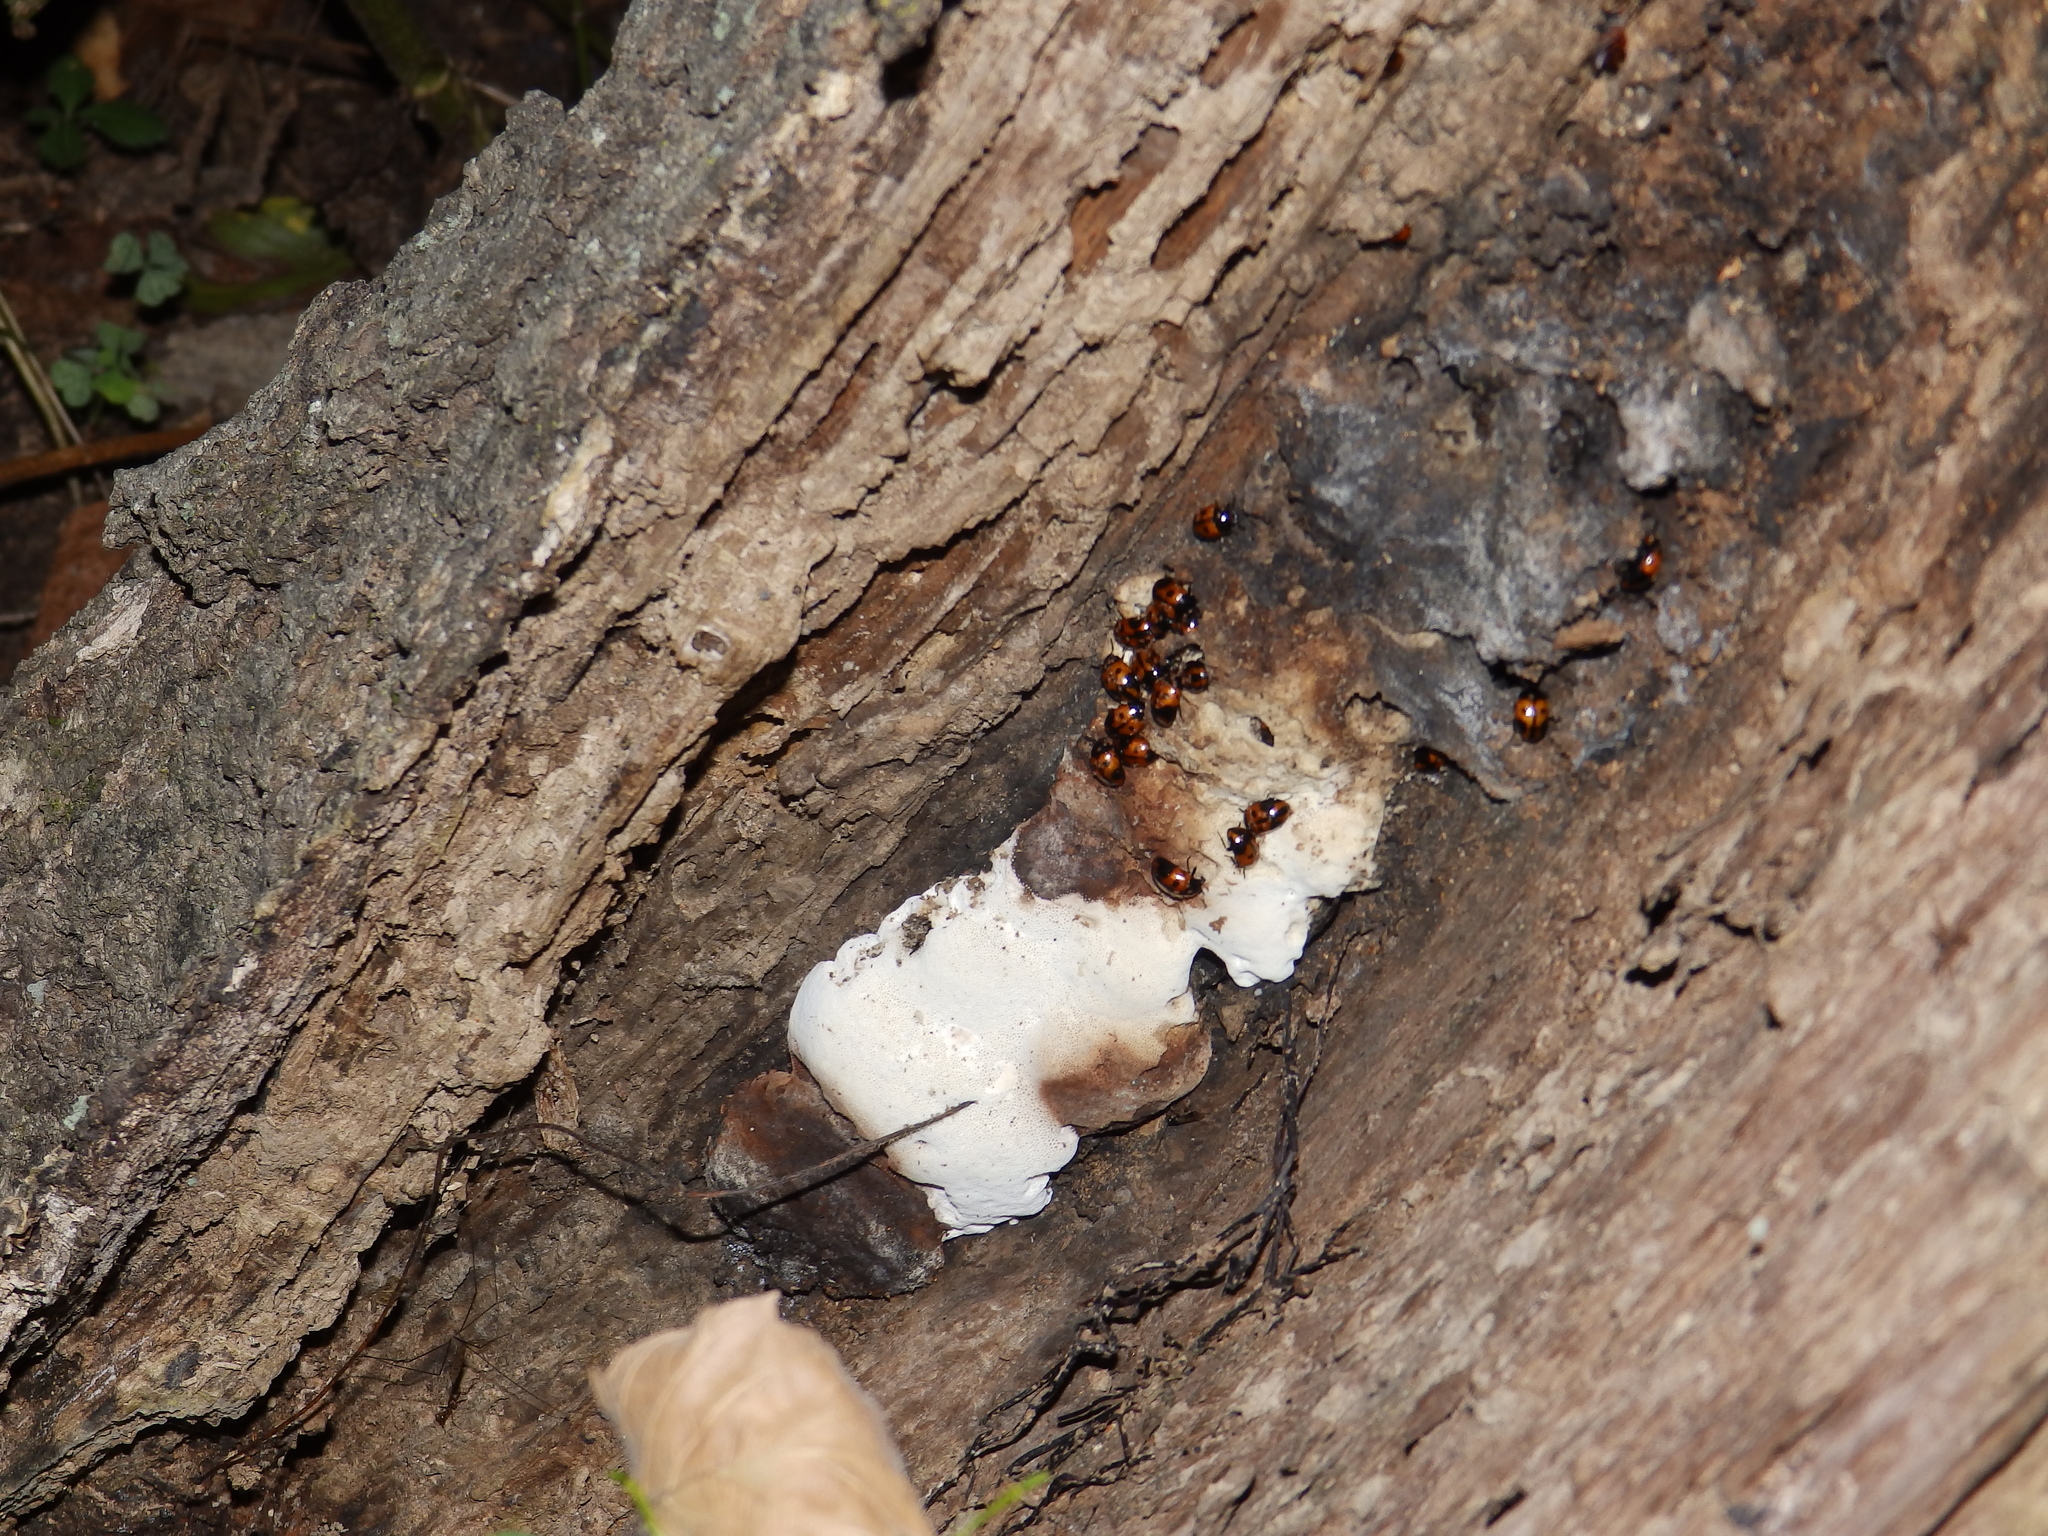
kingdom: Animalia
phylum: Arthropoda
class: Insecta
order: Coleoptera
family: Tenebrionidae
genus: Diaperis
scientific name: Diaperis maculata
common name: Darkling beetle
